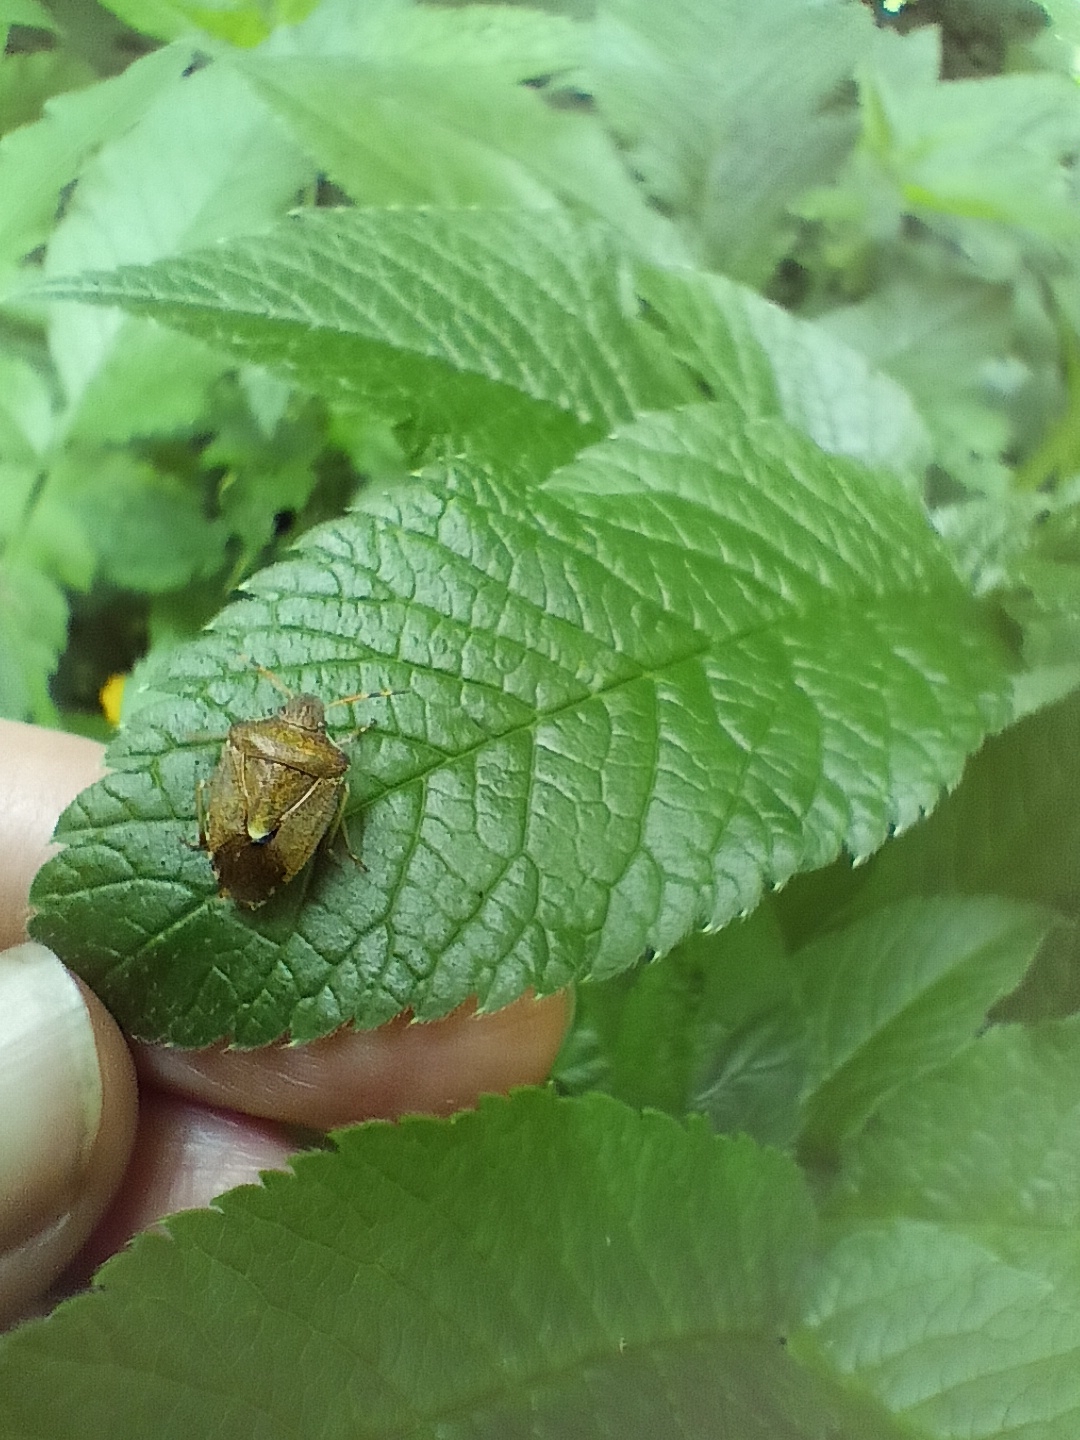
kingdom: Animalia
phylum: Arthropoda
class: Insecta
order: Hemiptera
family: Pentatomidae
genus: Holcostethus
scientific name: Holcostethus strictus
